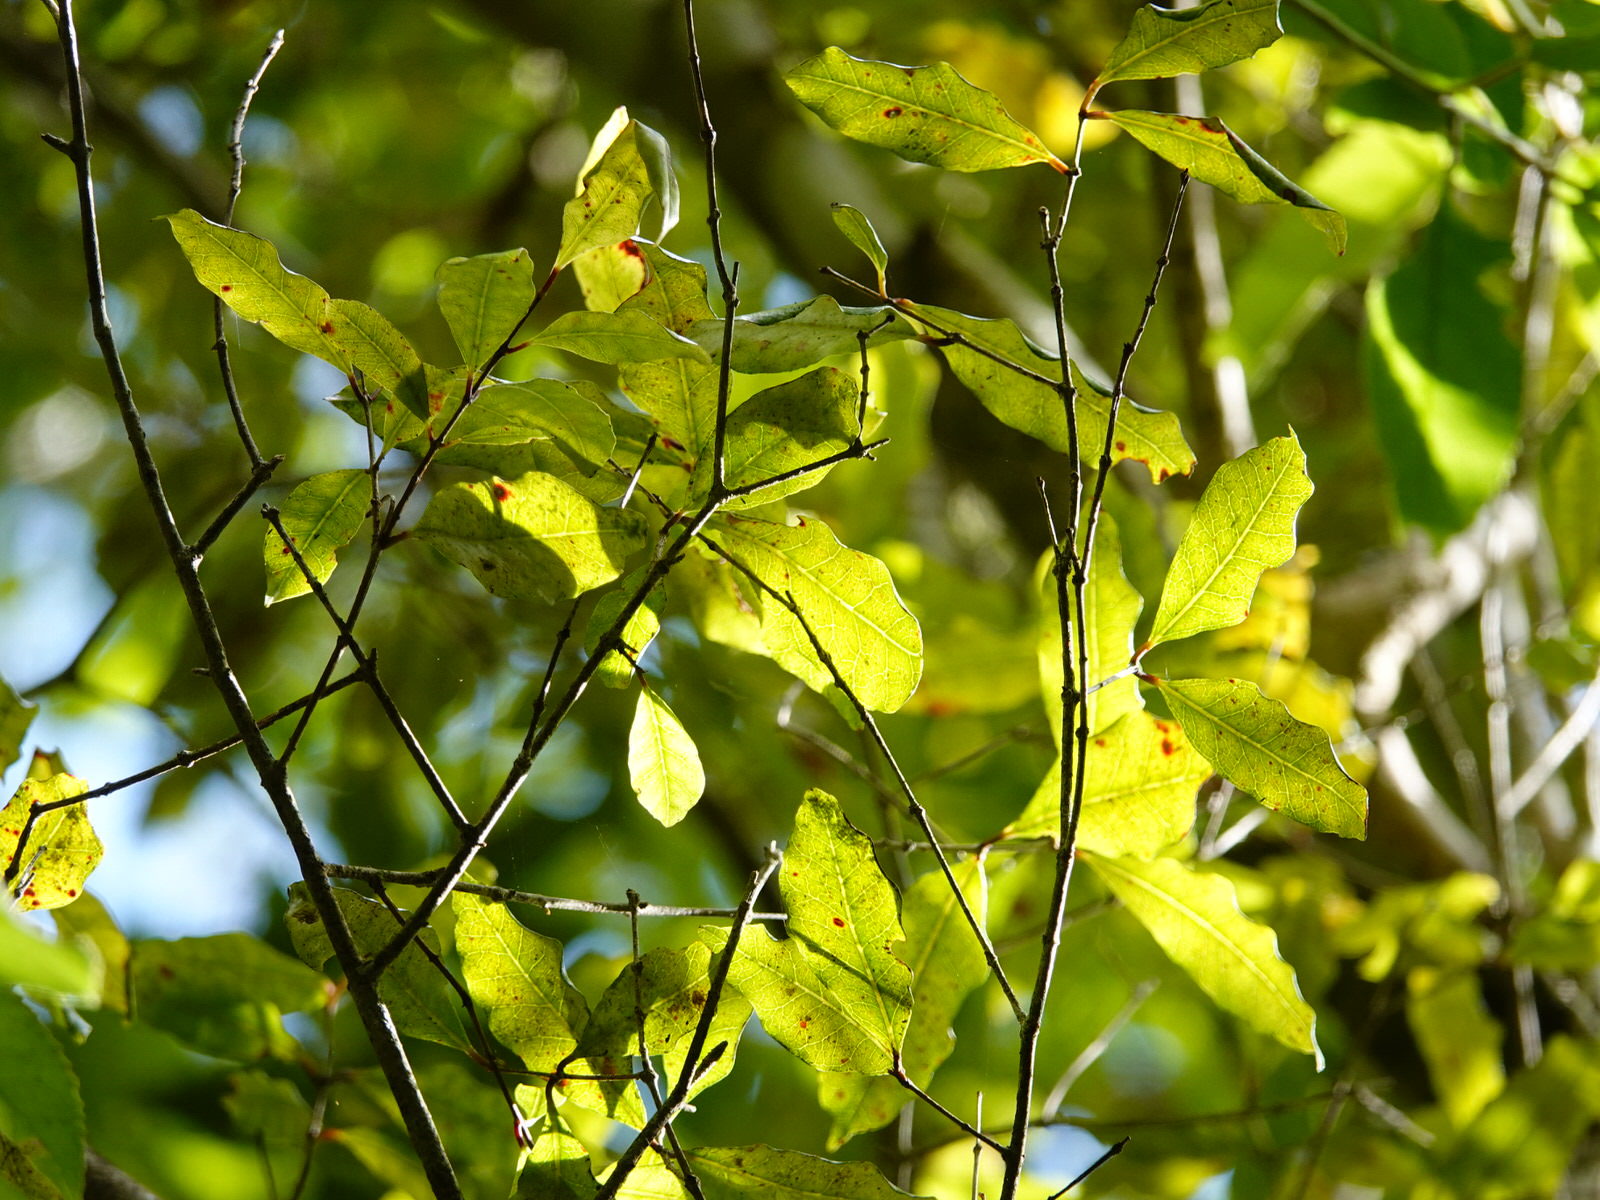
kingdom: Plantae
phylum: Tracheophyta
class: Magnoliopsida
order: Myrtales
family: Myrtaceae
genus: Syzygium
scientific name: Syzygium maire
